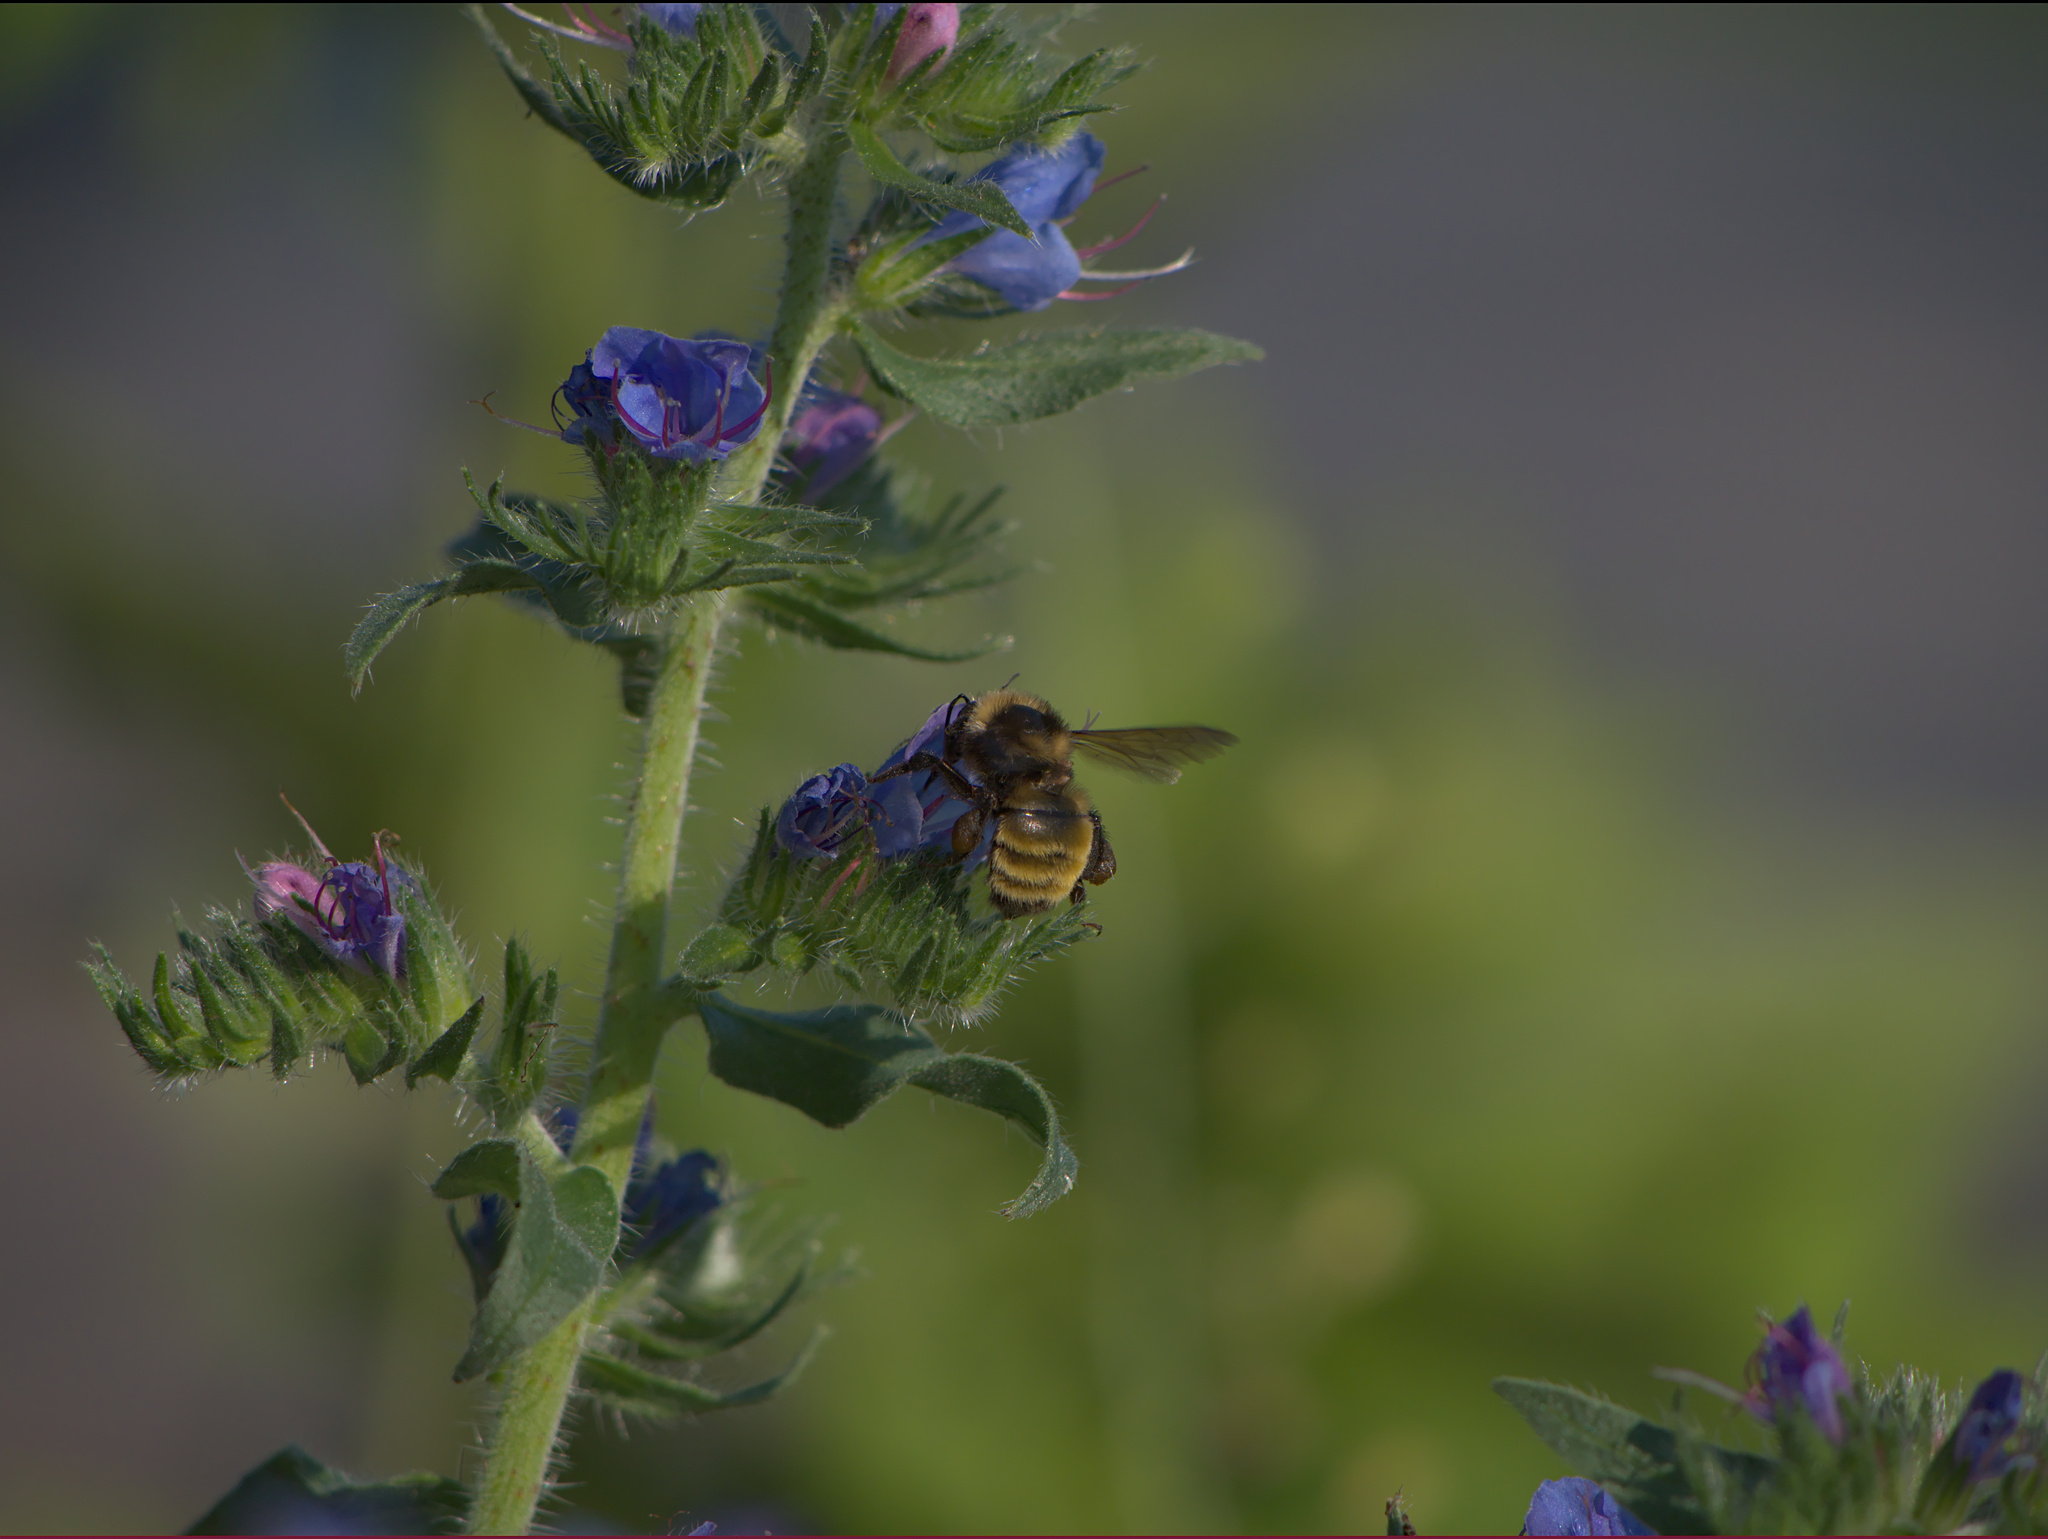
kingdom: Animalia
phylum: Arthropoda
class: Insecta
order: Hymenoptera
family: Apidae
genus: Bombus
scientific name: Bombus borealis
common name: Northern amber bumble bee
